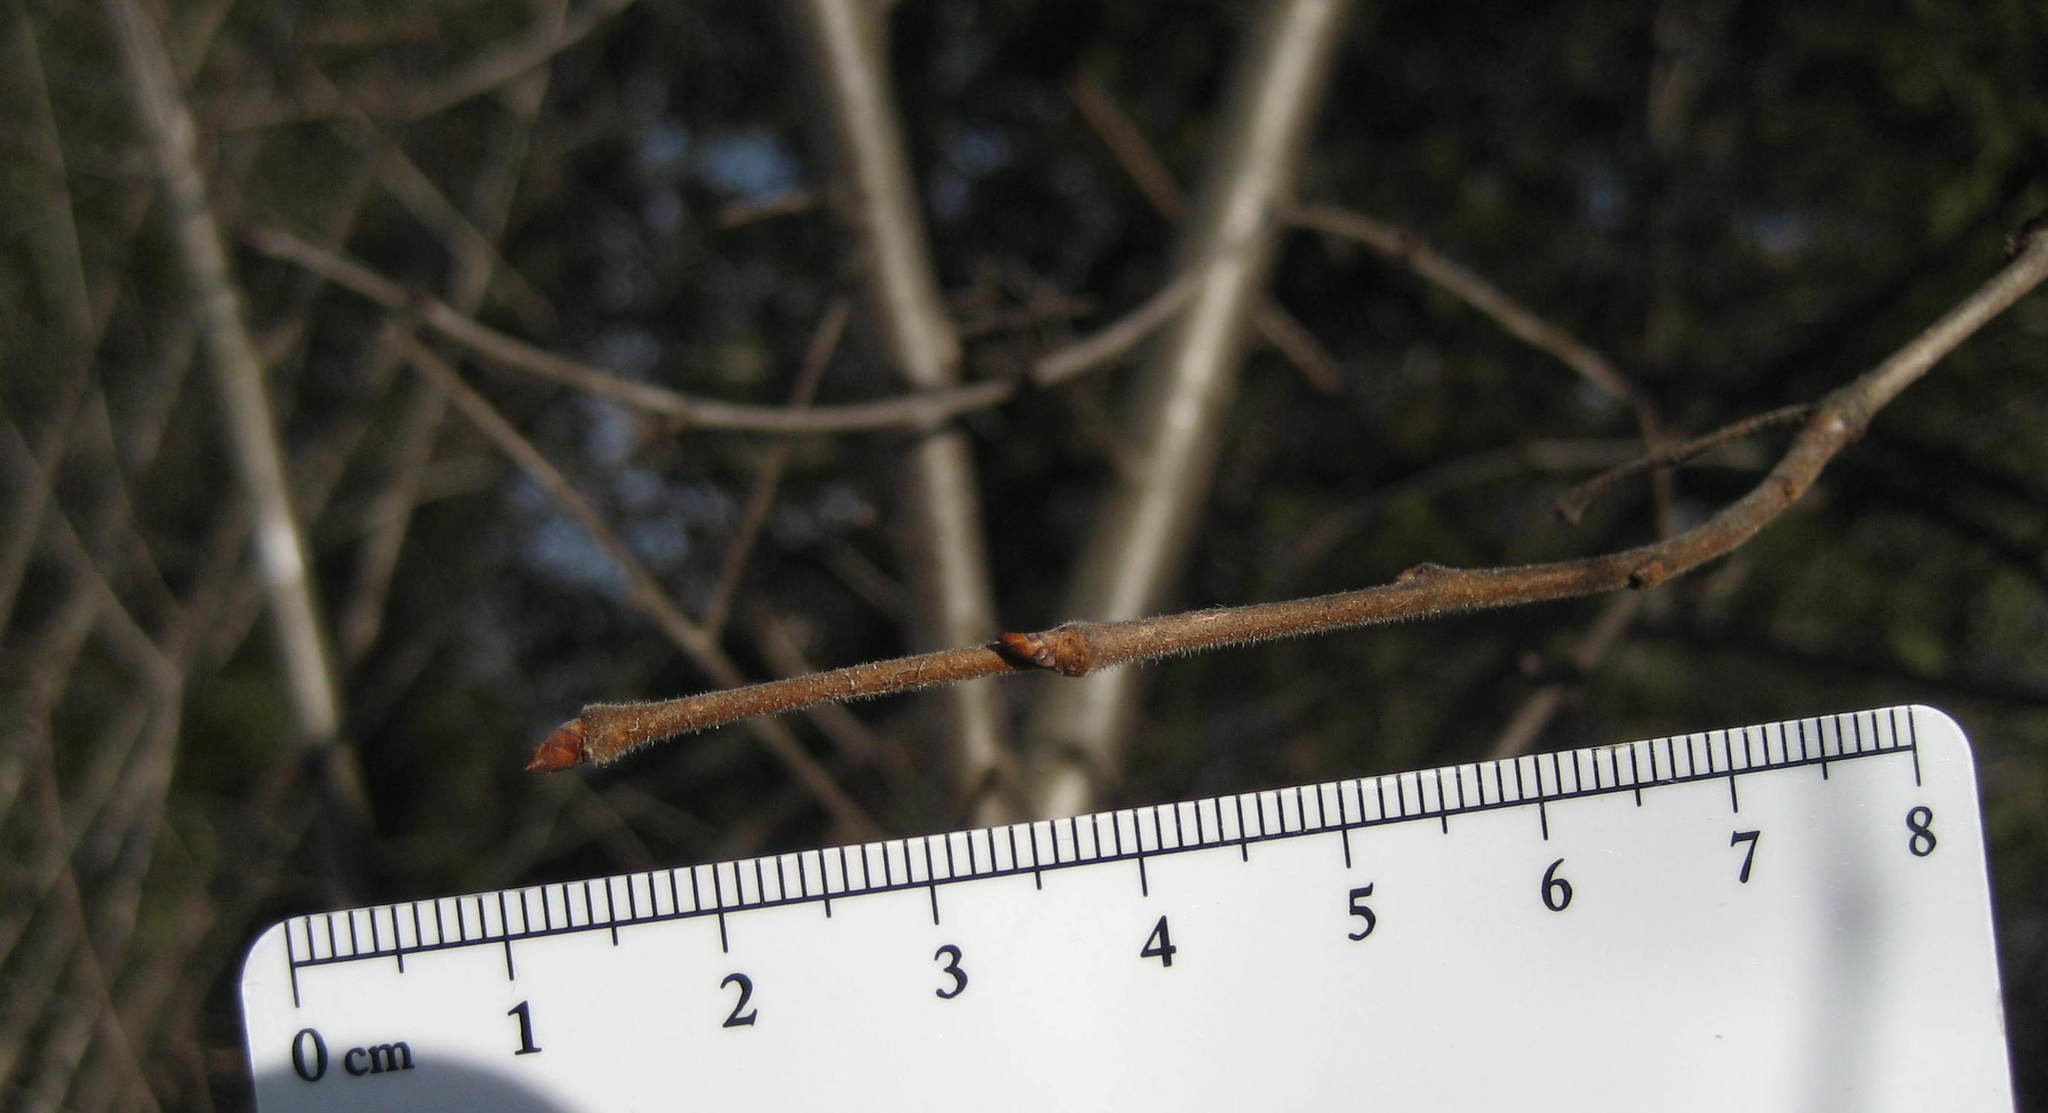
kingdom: Plantae
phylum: Tracheophyta
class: Magnoliopsida
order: Rosales
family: Ulmaceae
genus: Ulmus
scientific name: Ulmus americana
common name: American elm
